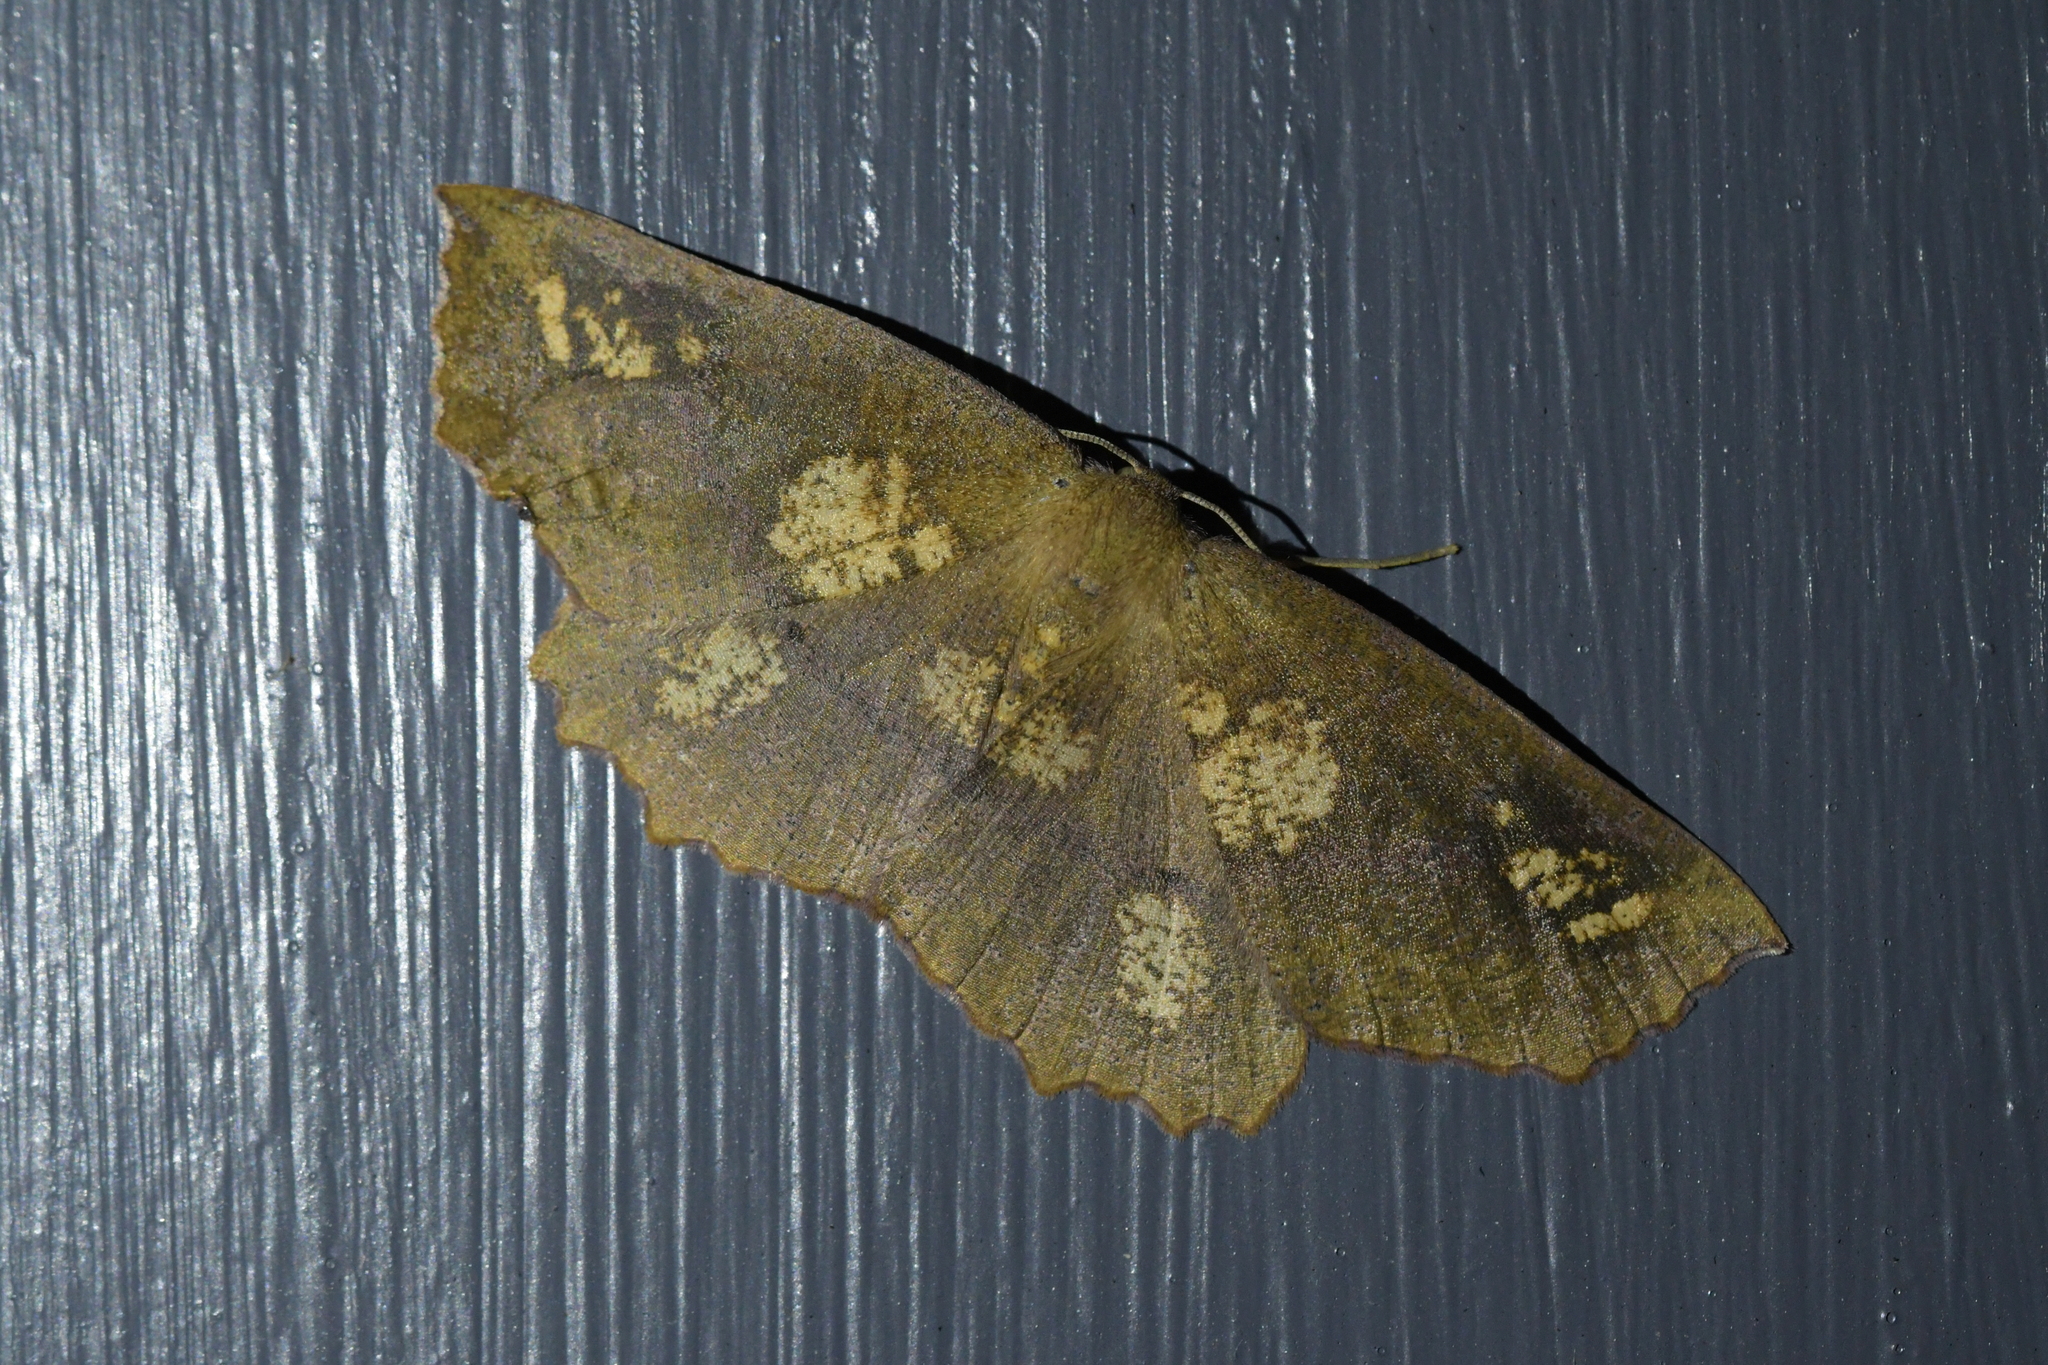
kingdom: Animalia
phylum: Arthropoda
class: Insecta
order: Lepidoptera
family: Geometridae
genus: Xyridacma
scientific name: Xyridacma ustaria
